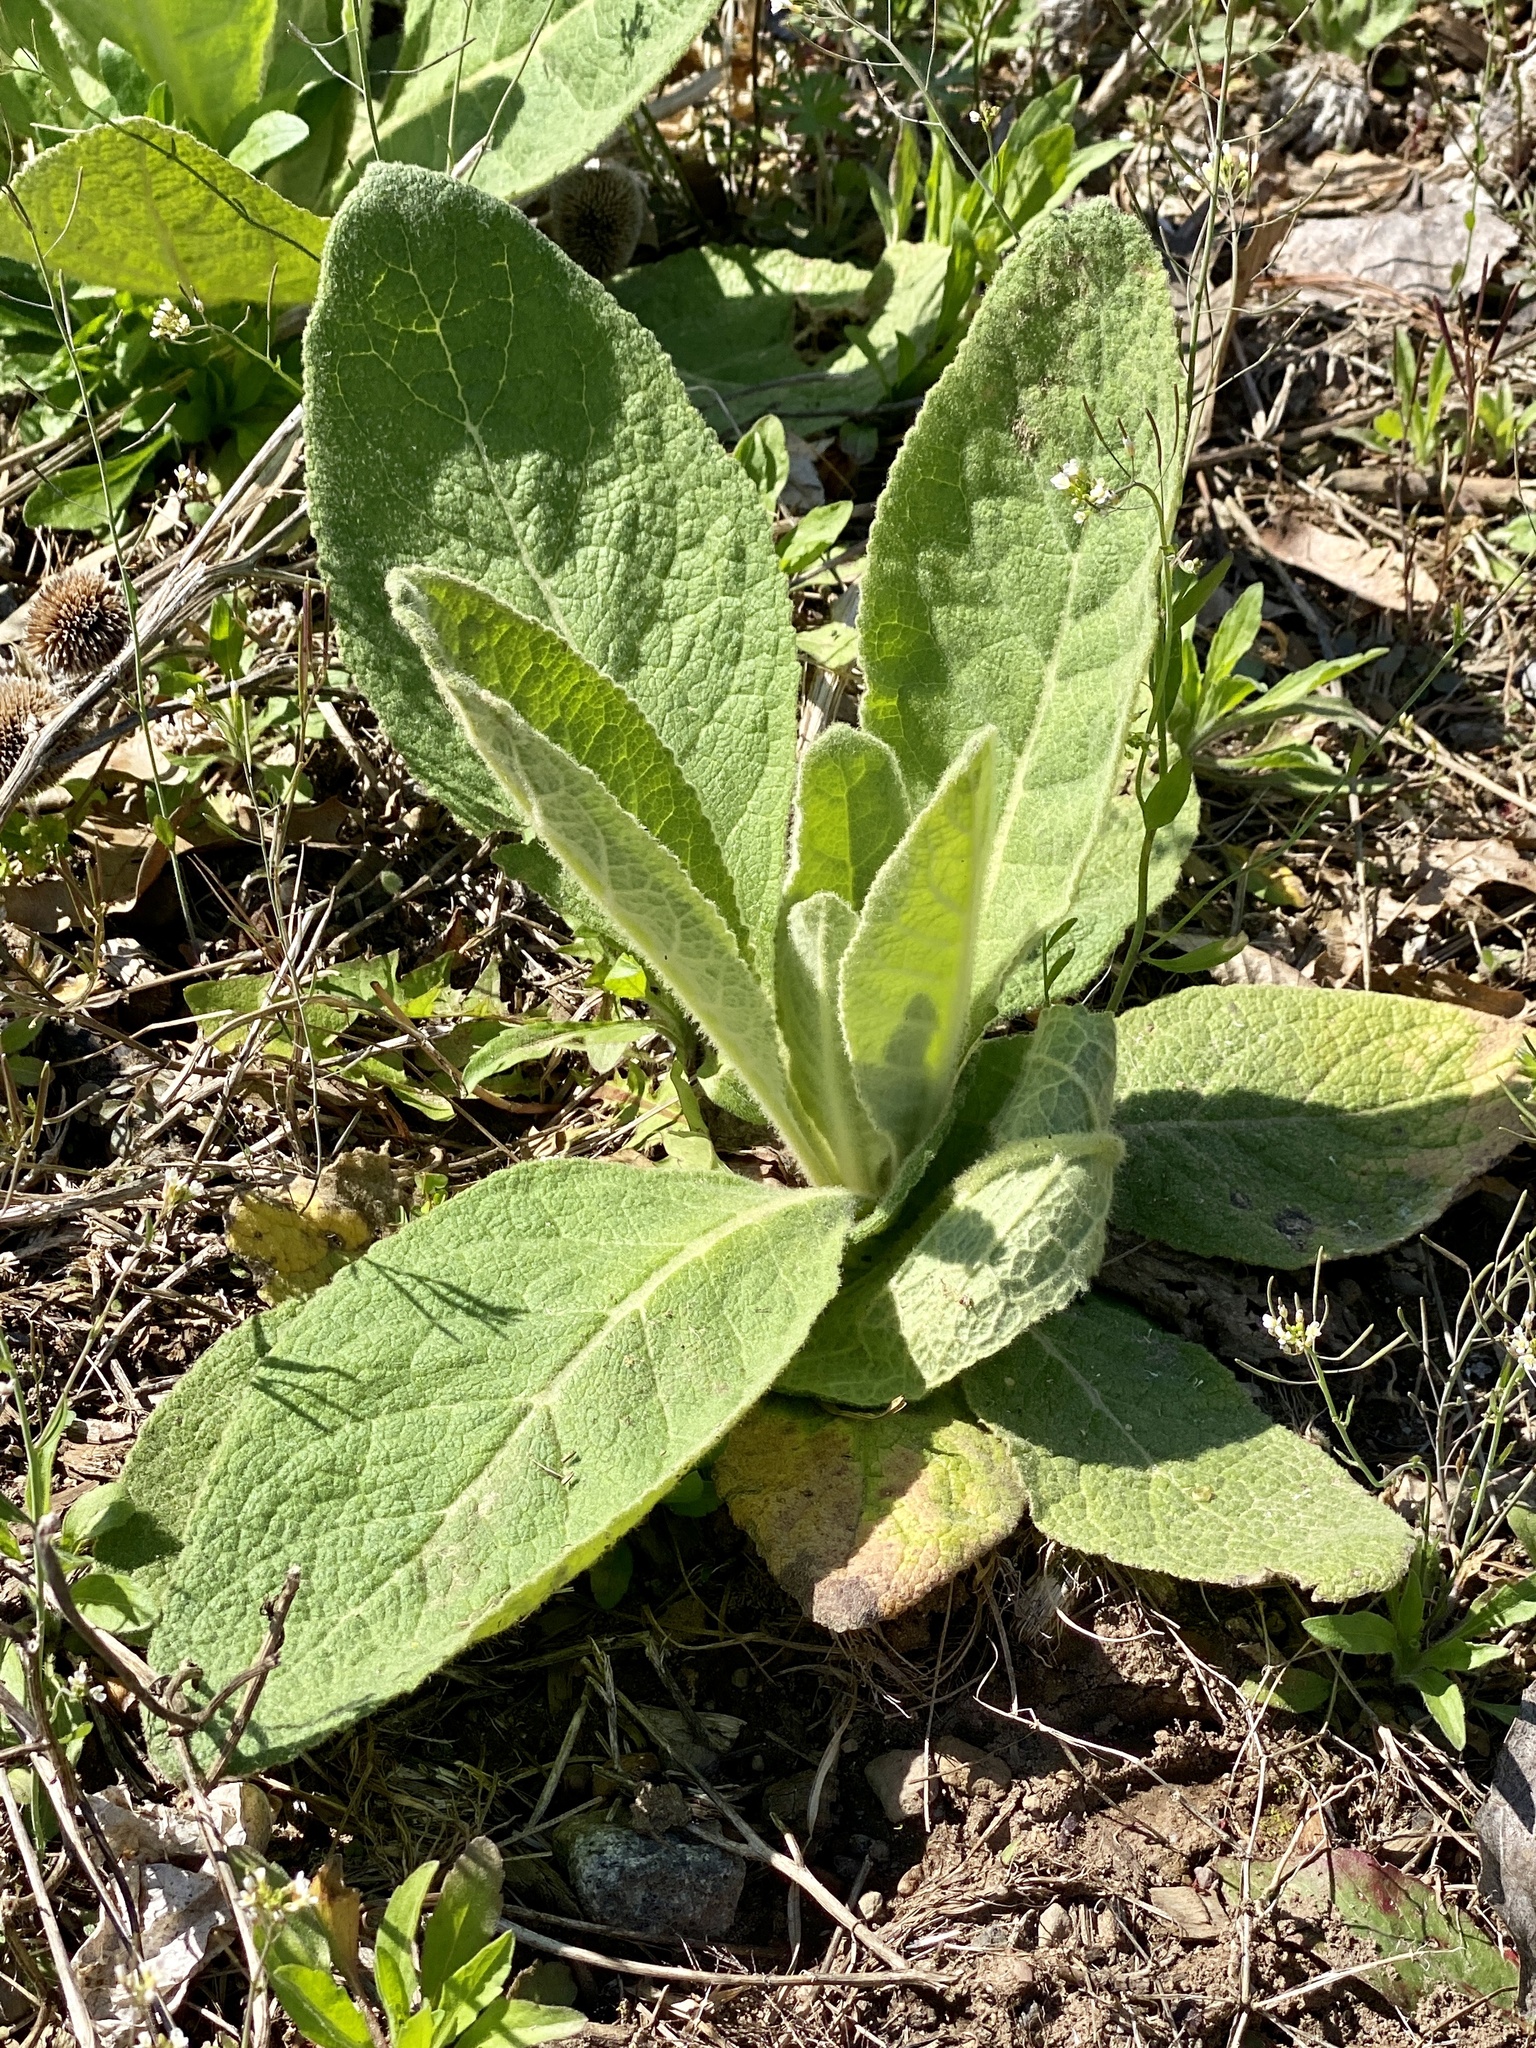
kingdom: Plantae
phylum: Tracheophyta
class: Magnoliopsida
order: Lamiales
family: Scrophulariaceae
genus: Verbascum
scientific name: Verbascum thapsus
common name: Common mullein
